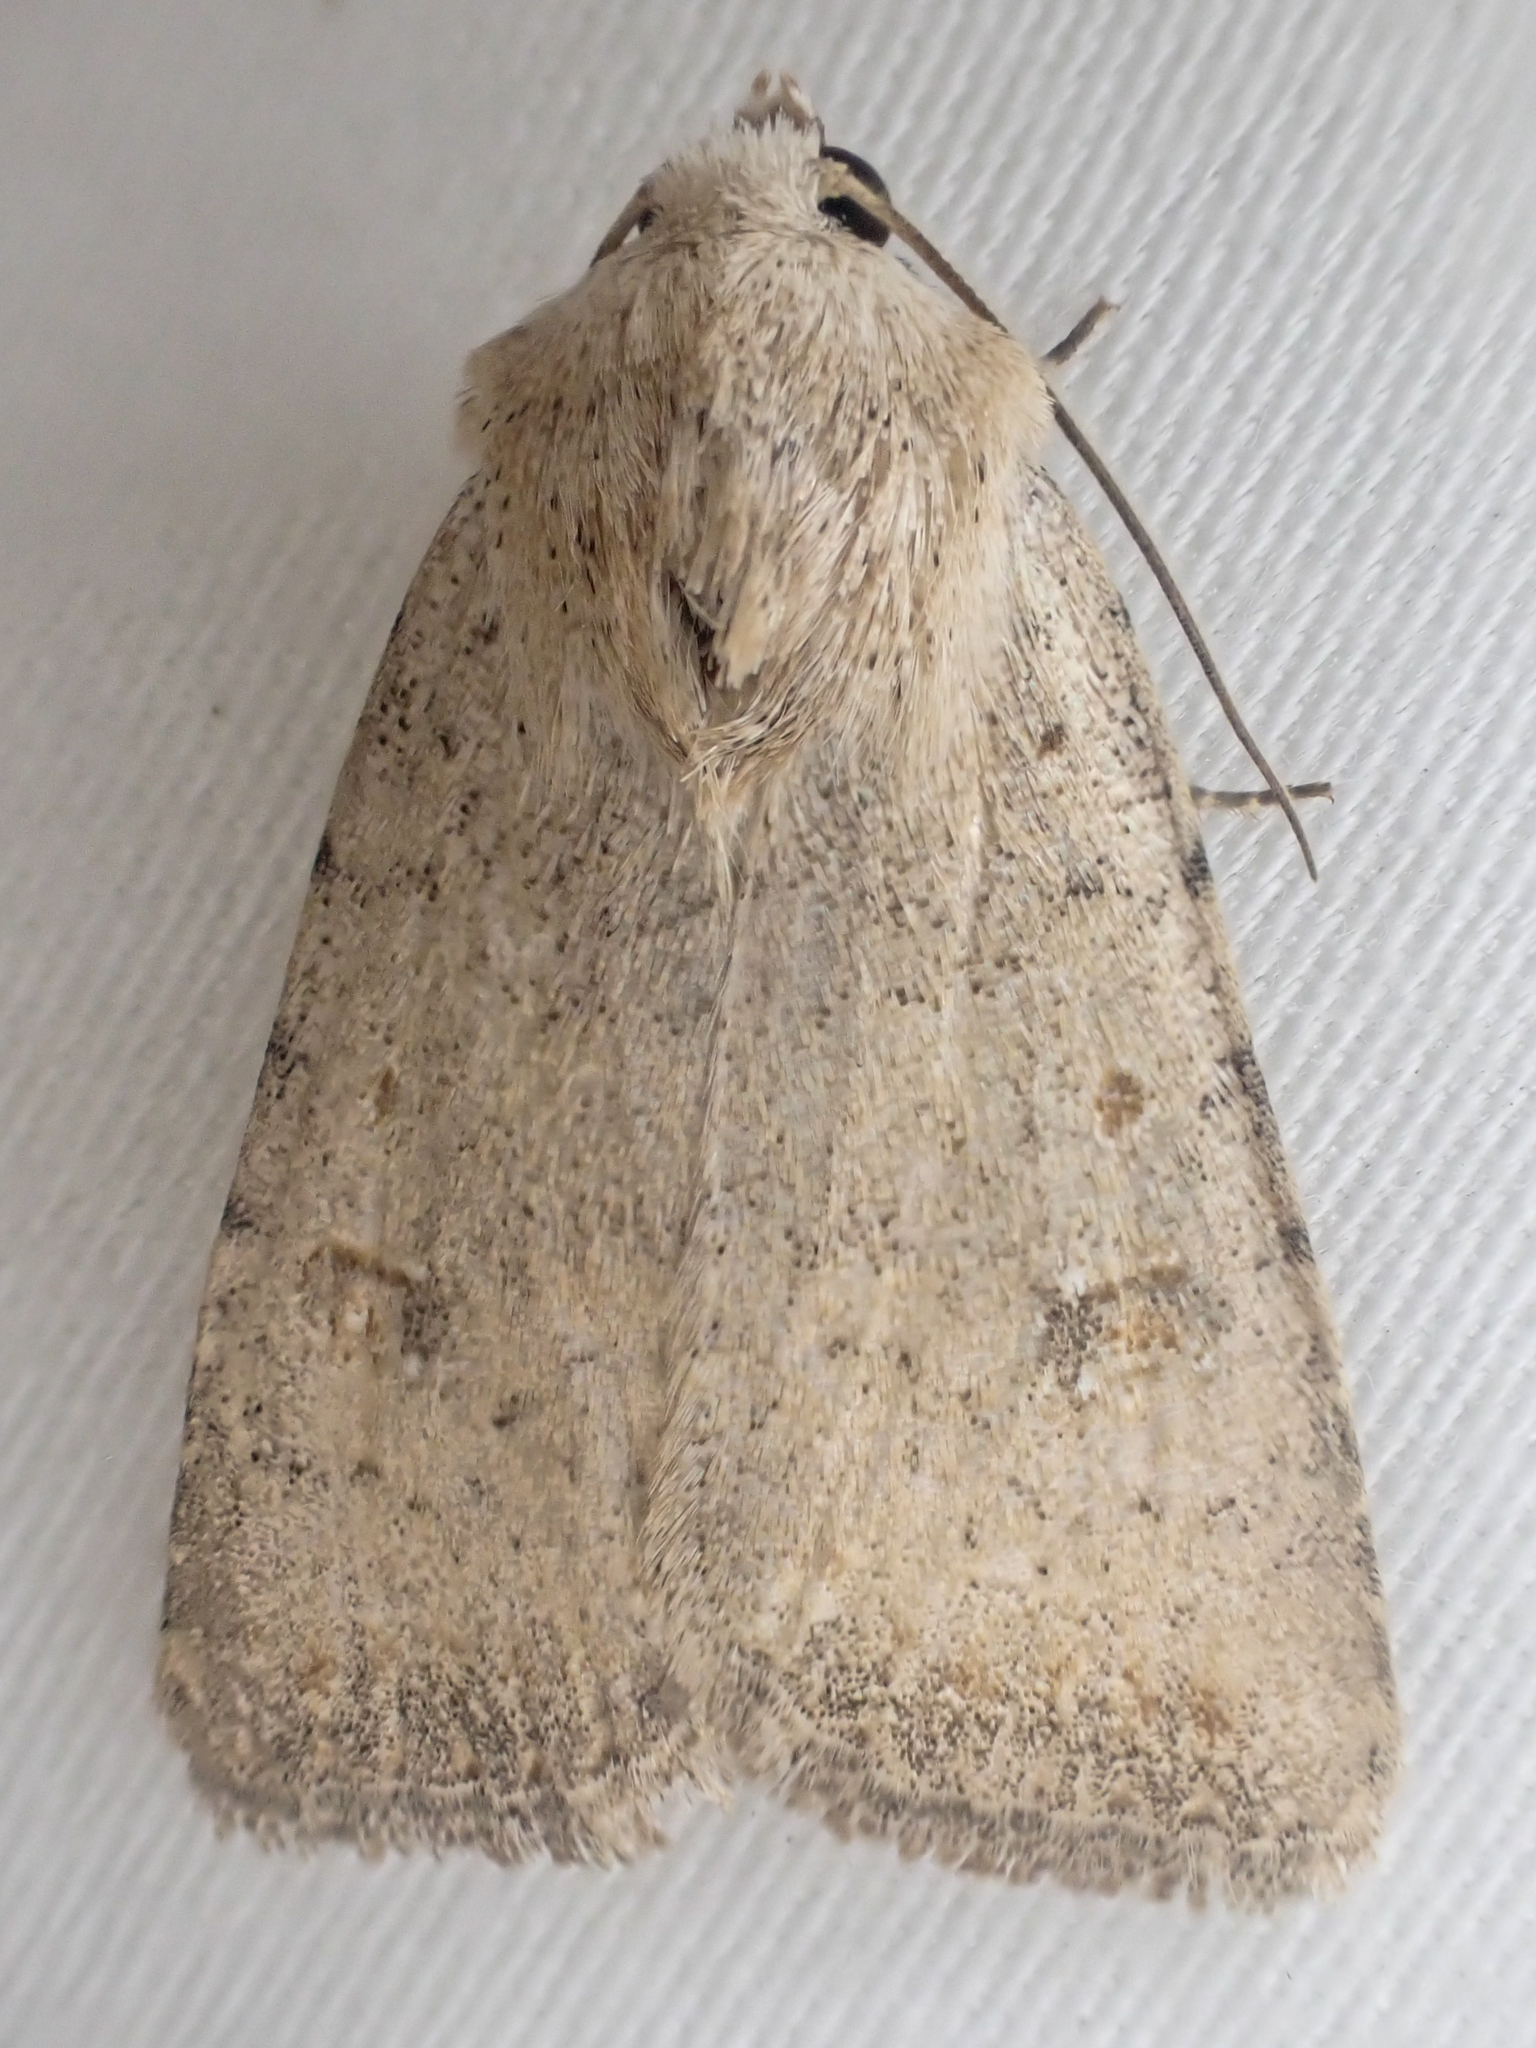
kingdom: Animalia
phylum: Arthropoda
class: Insecta
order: Lepidoptera
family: Noctuidae
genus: Caradrina
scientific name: Caradrina montana
